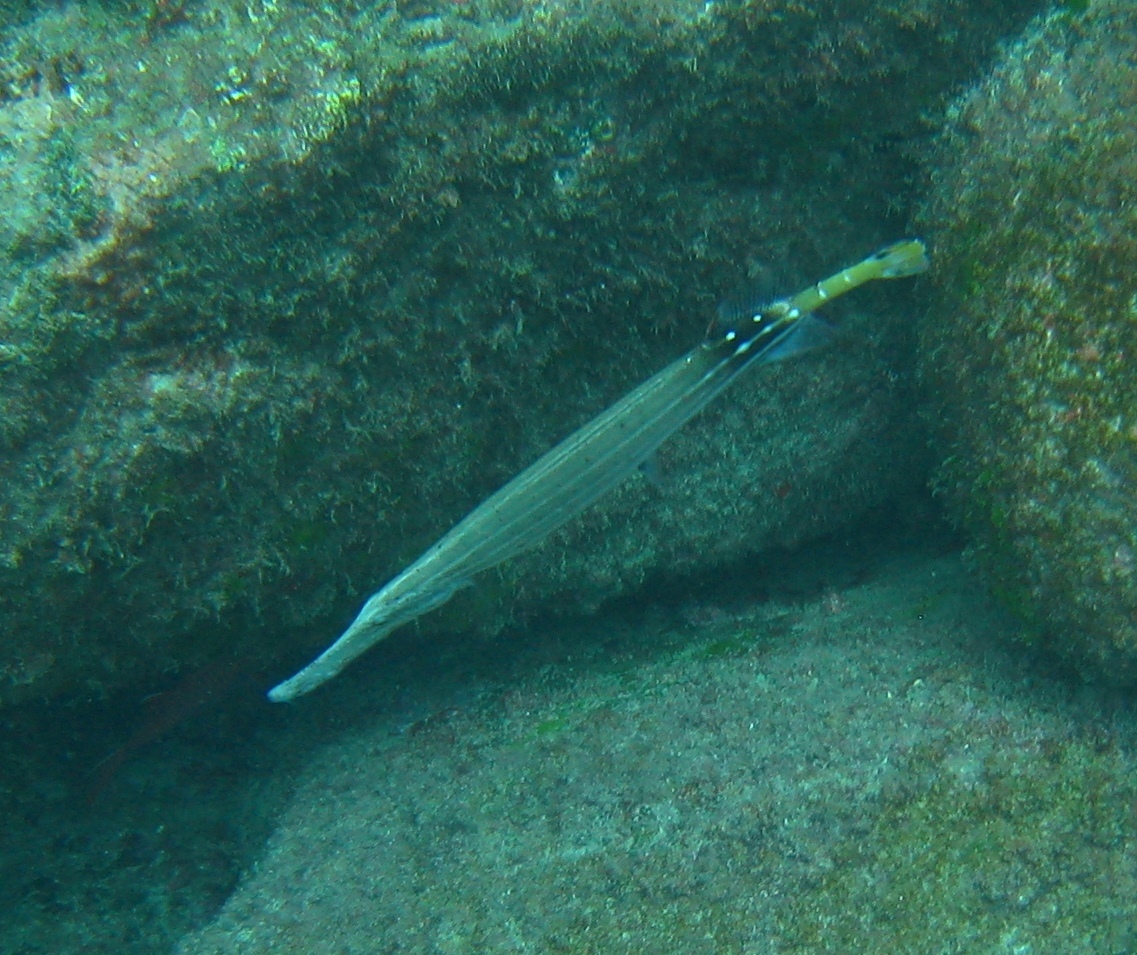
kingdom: Animalia
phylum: Chordata
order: Syngnathiformes
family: Aulostomidae
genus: Aulostomus
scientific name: Aulostomus chinensis
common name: Chinese trumpetfish
